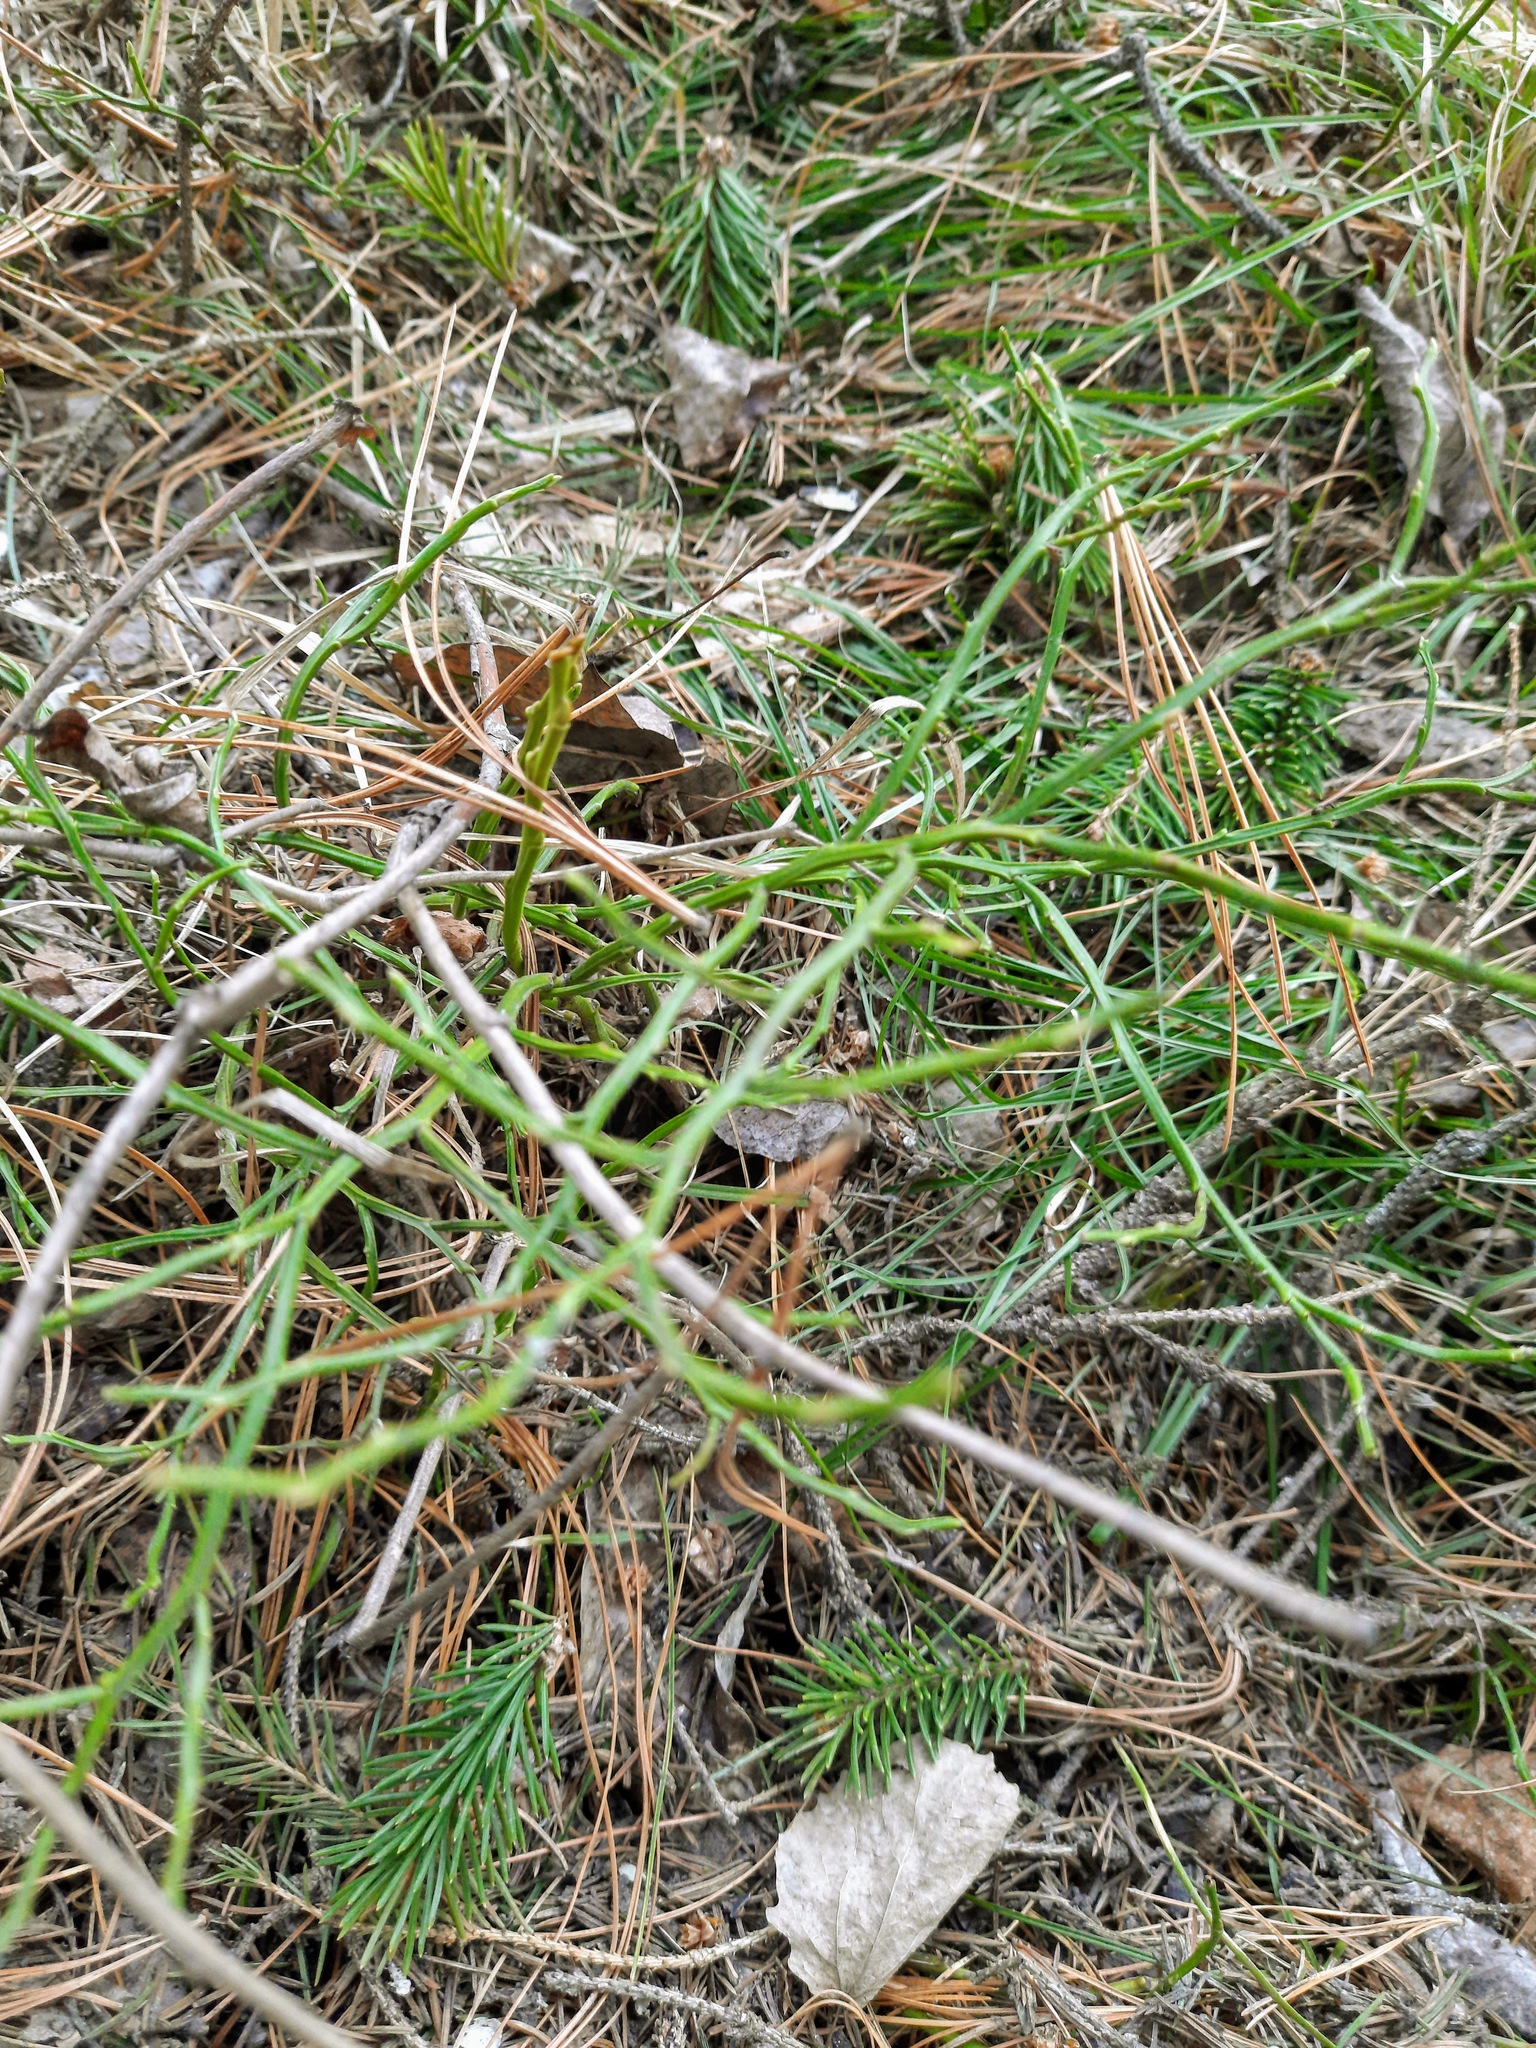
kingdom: Plantae
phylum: Tracheophyta
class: Magnoliopsida
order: Ericales
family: Ericaceae
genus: Vaccinium
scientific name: Vaccinium myrtillus
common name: Bilberry
